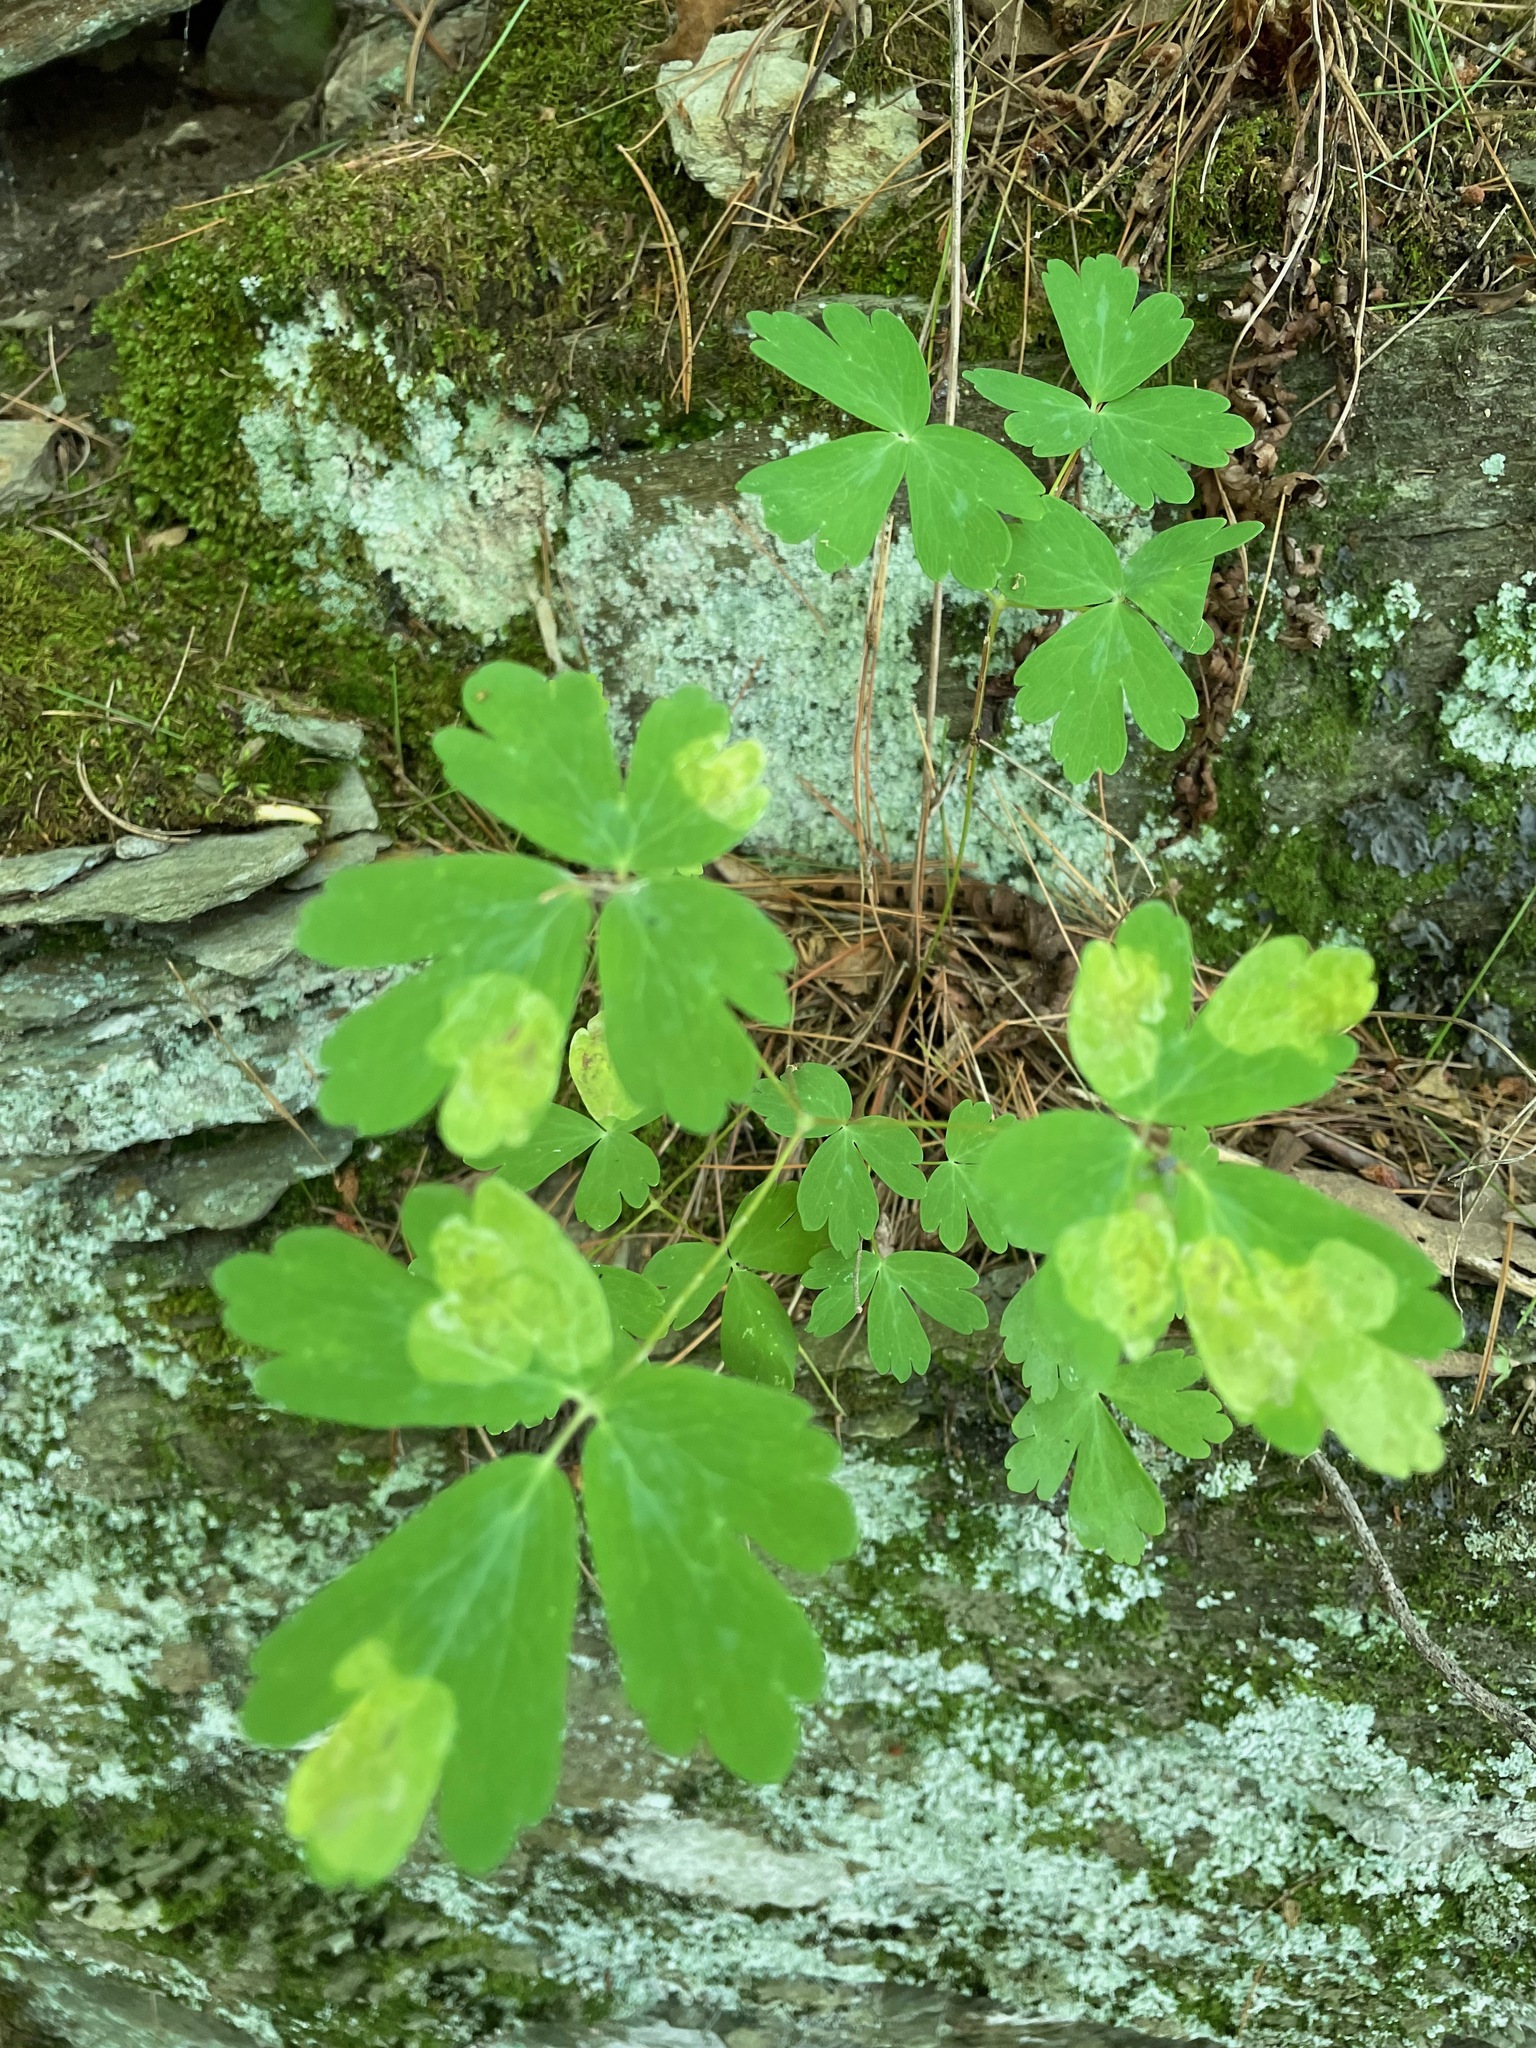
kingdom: Plantae
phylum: Tracheophyta
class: Magnoliopsida
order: Ranunculales
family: Ranunculaceae
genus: Aquilegia
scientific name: Aquilegia canadensis
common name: American columbine
